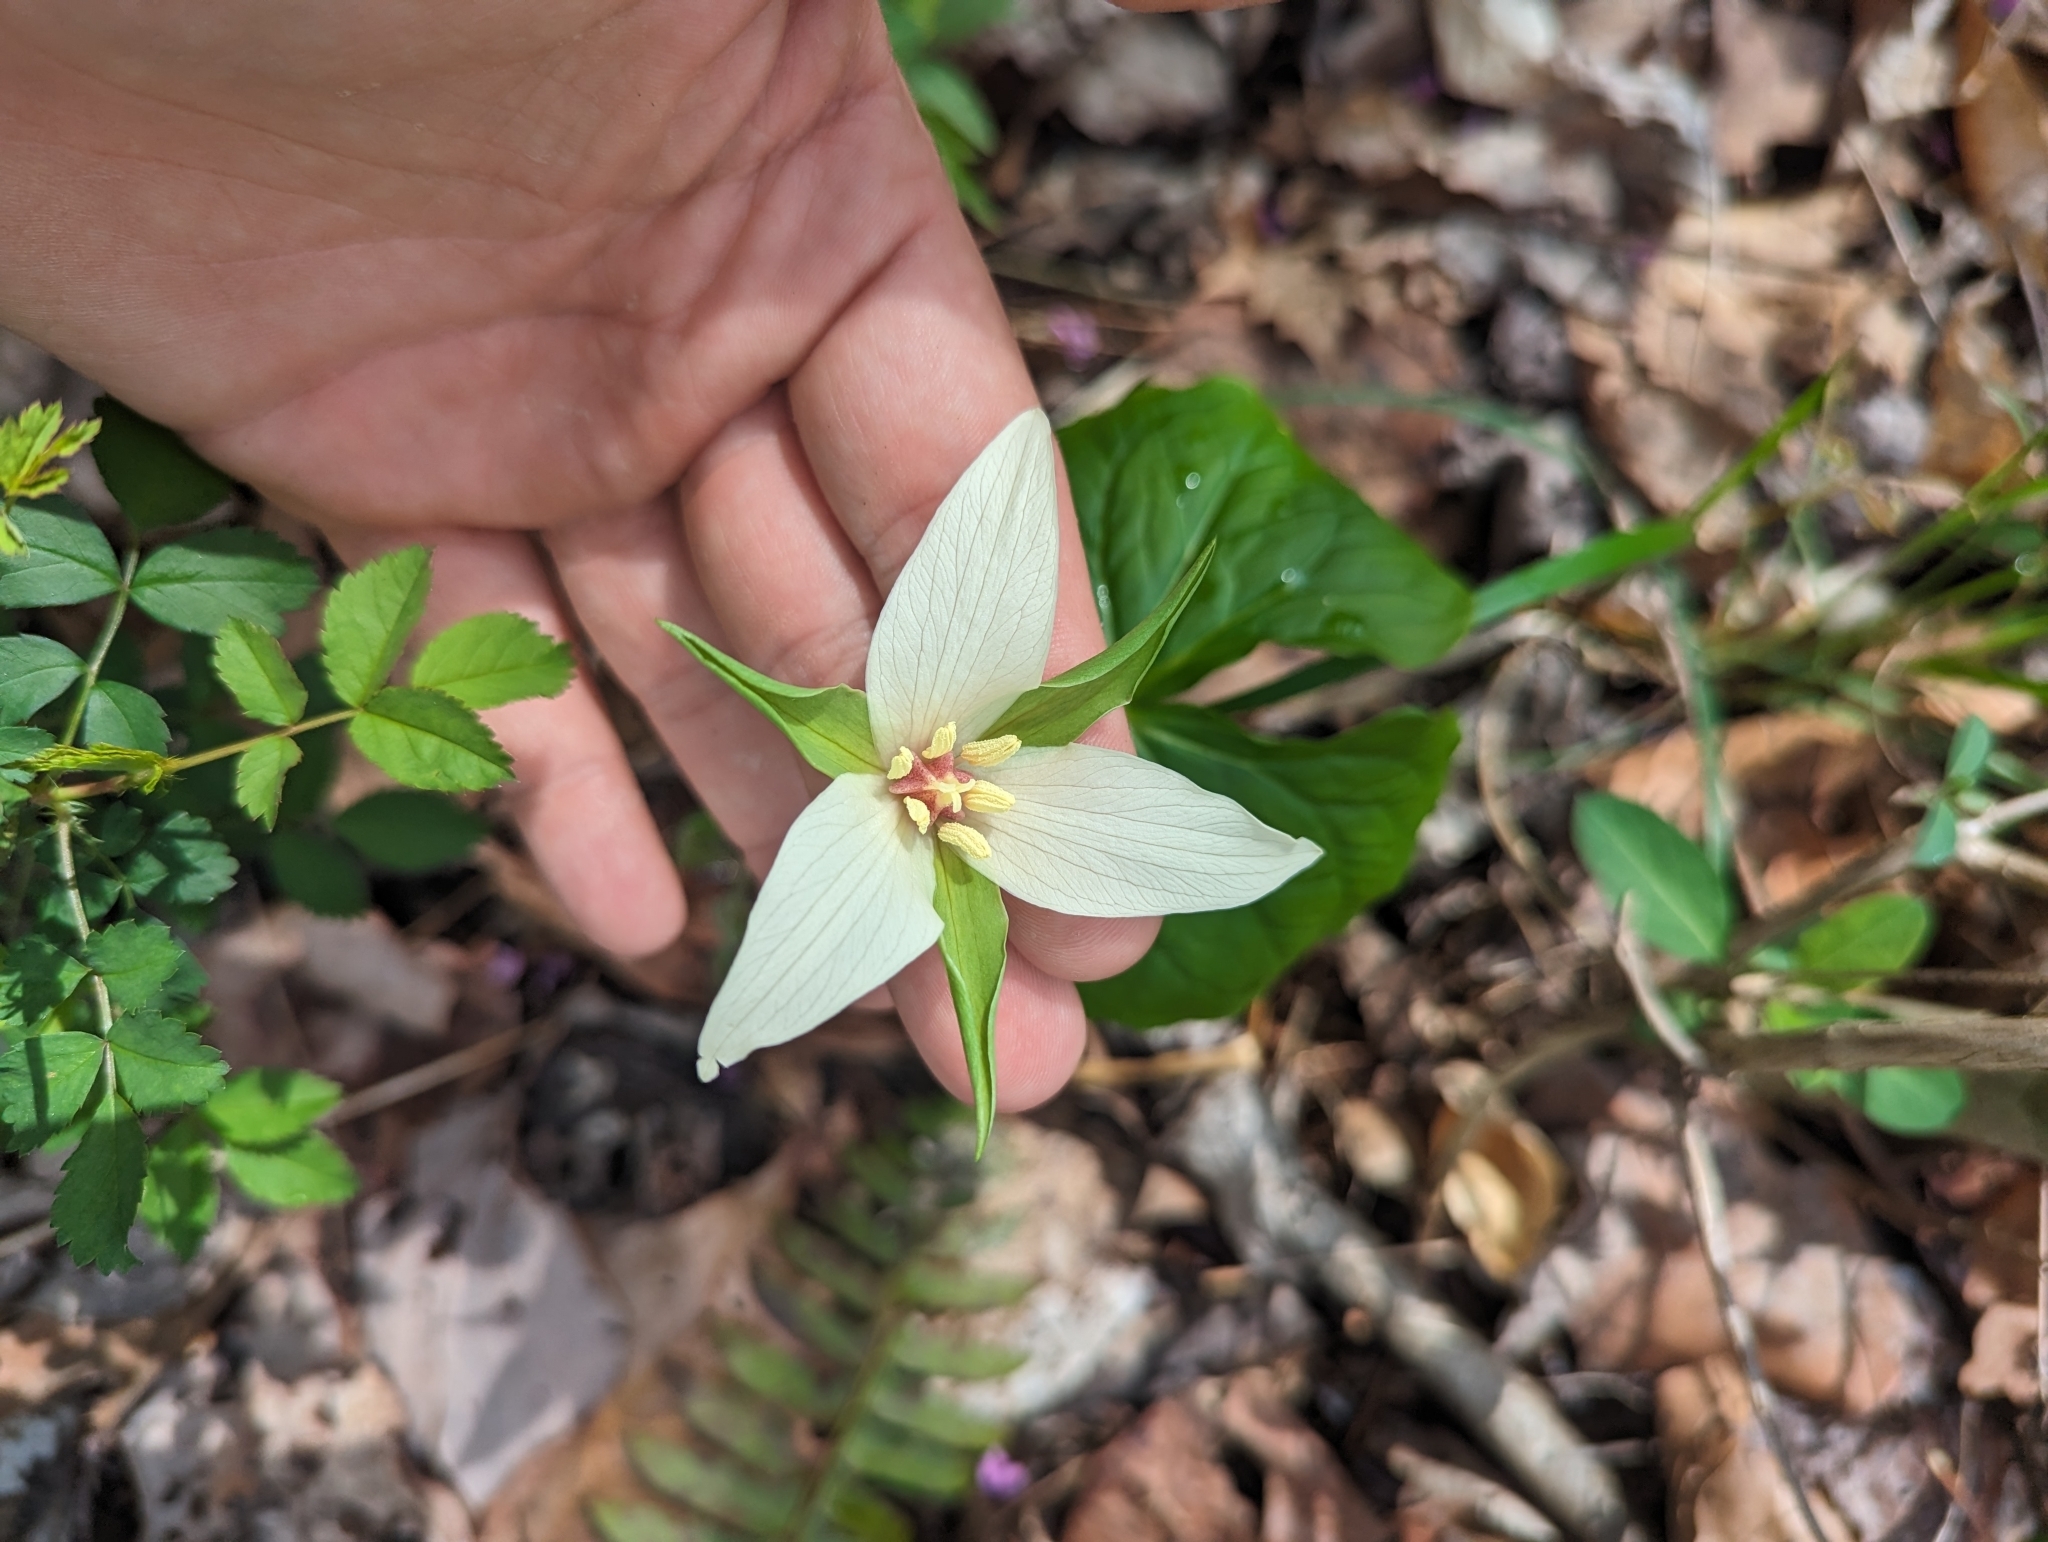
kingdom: Plantae
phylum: Tracheophyta
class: Liliopsida
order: Liliales
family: Melanthiaceae
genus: Trillium
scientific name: Trillium erectum
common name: Purple trillium
